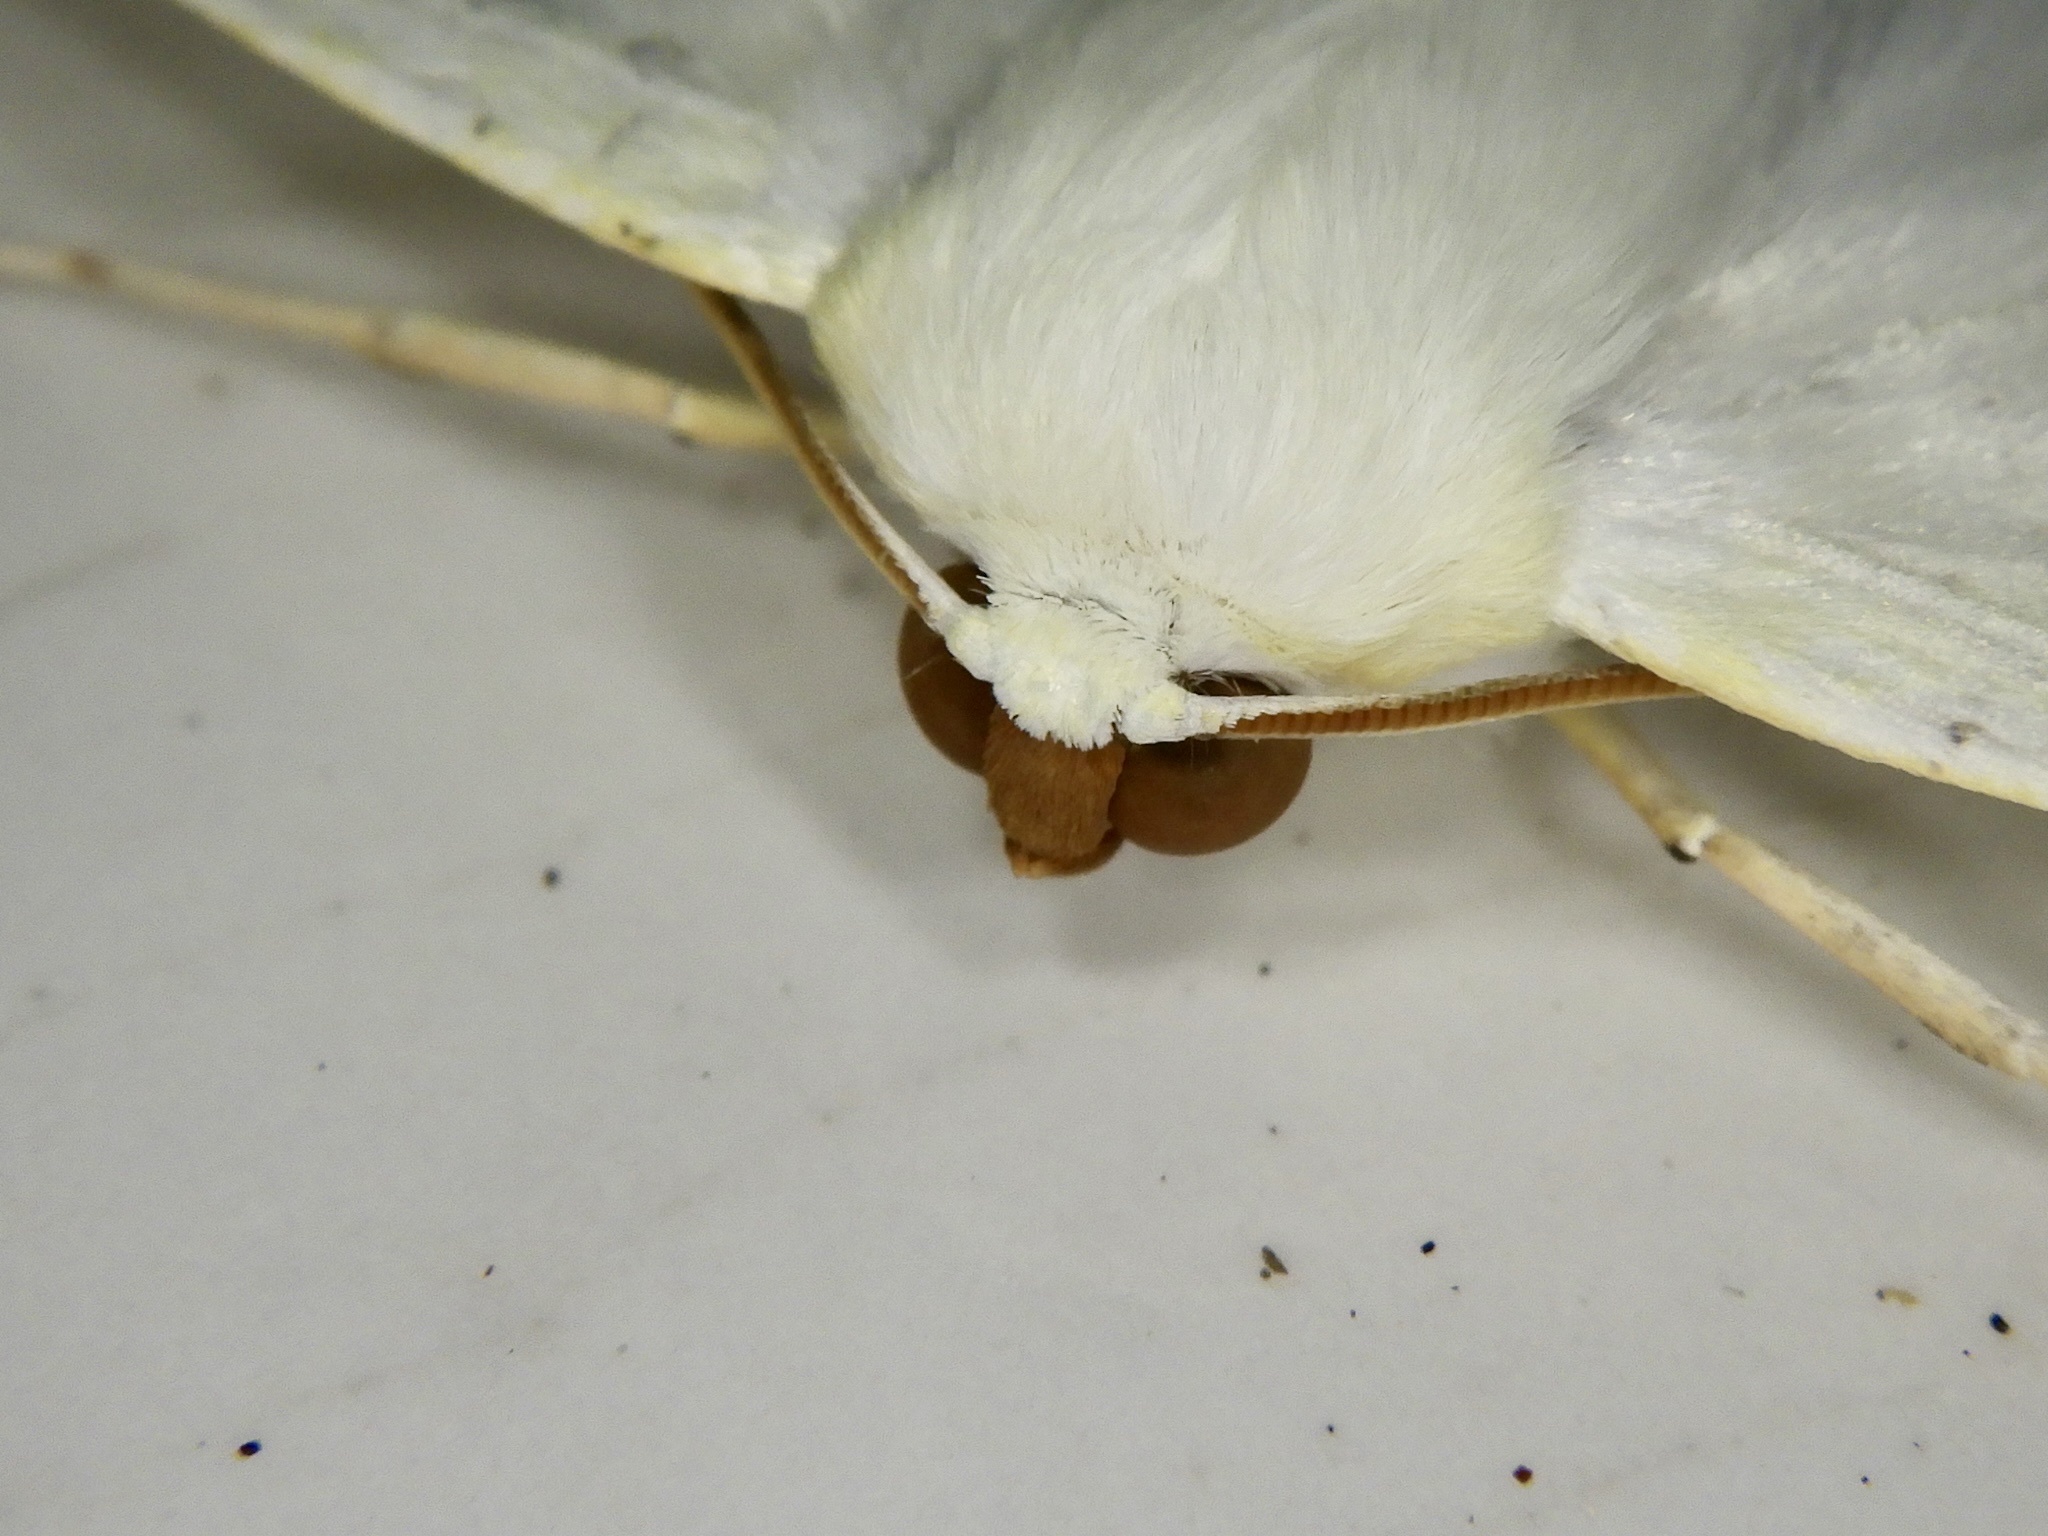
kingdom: Animalia
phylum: Arthropoda
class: Insecta
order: Lepidoptera
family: Geometridae
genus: Ourapteryx
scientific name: Ourapteryx nivea
